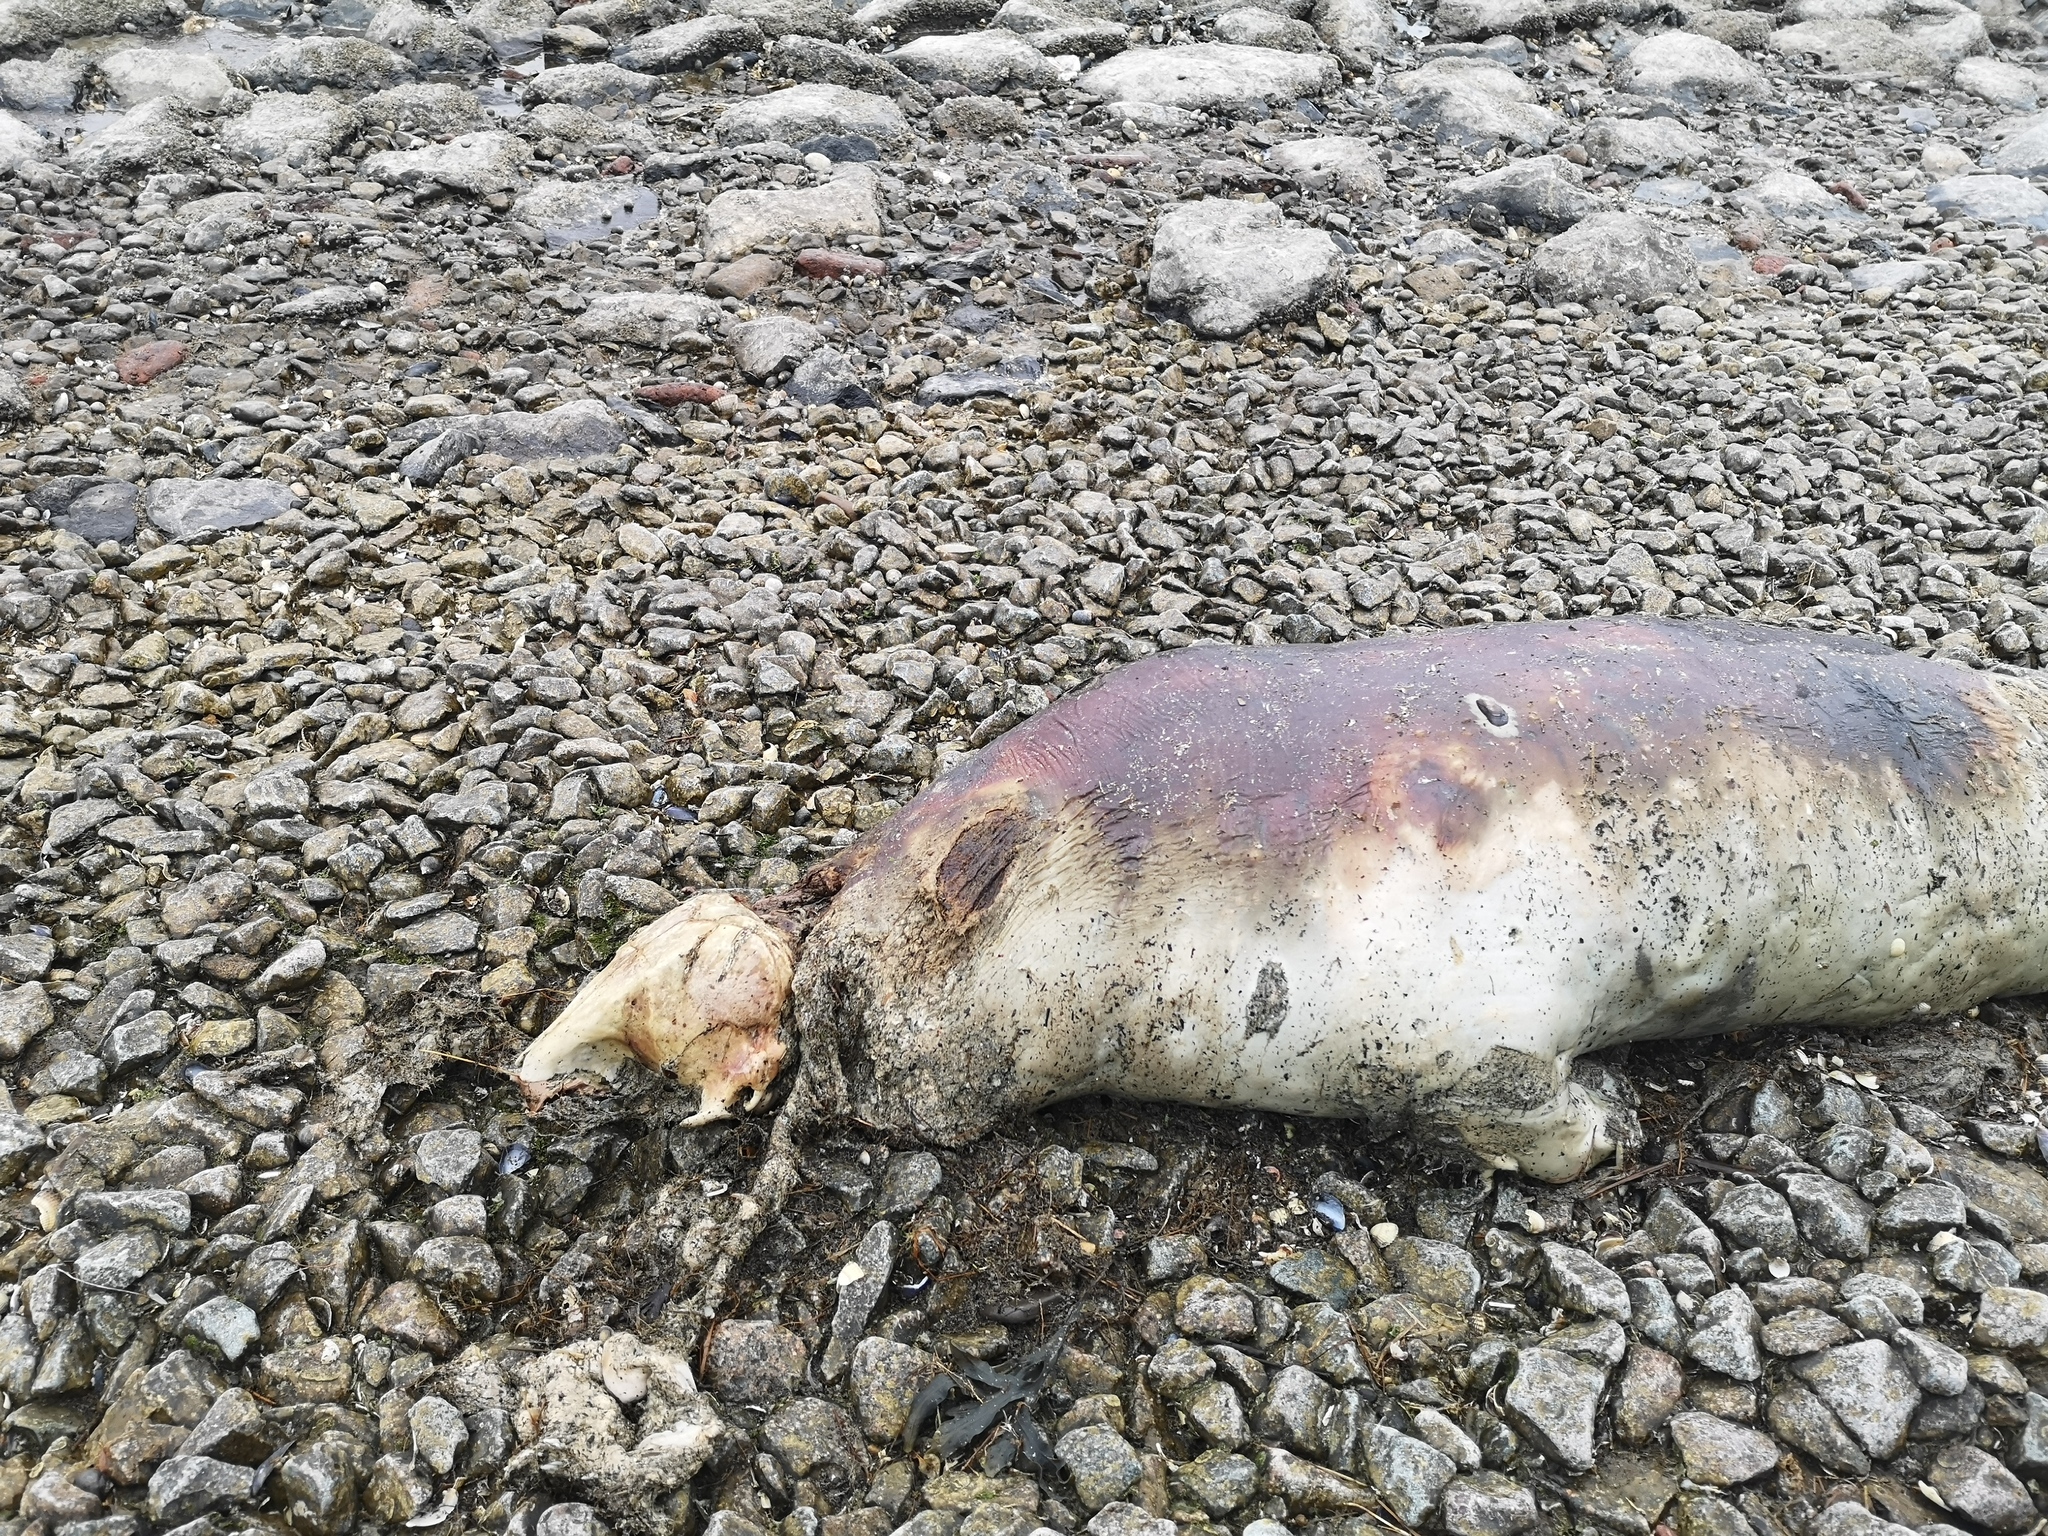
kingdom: Animalia
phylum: Chordata
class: Mammalia
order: Carnivora
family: Phocidae
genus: Phoca
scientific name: Phoca vitulina
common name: Harbor seal
